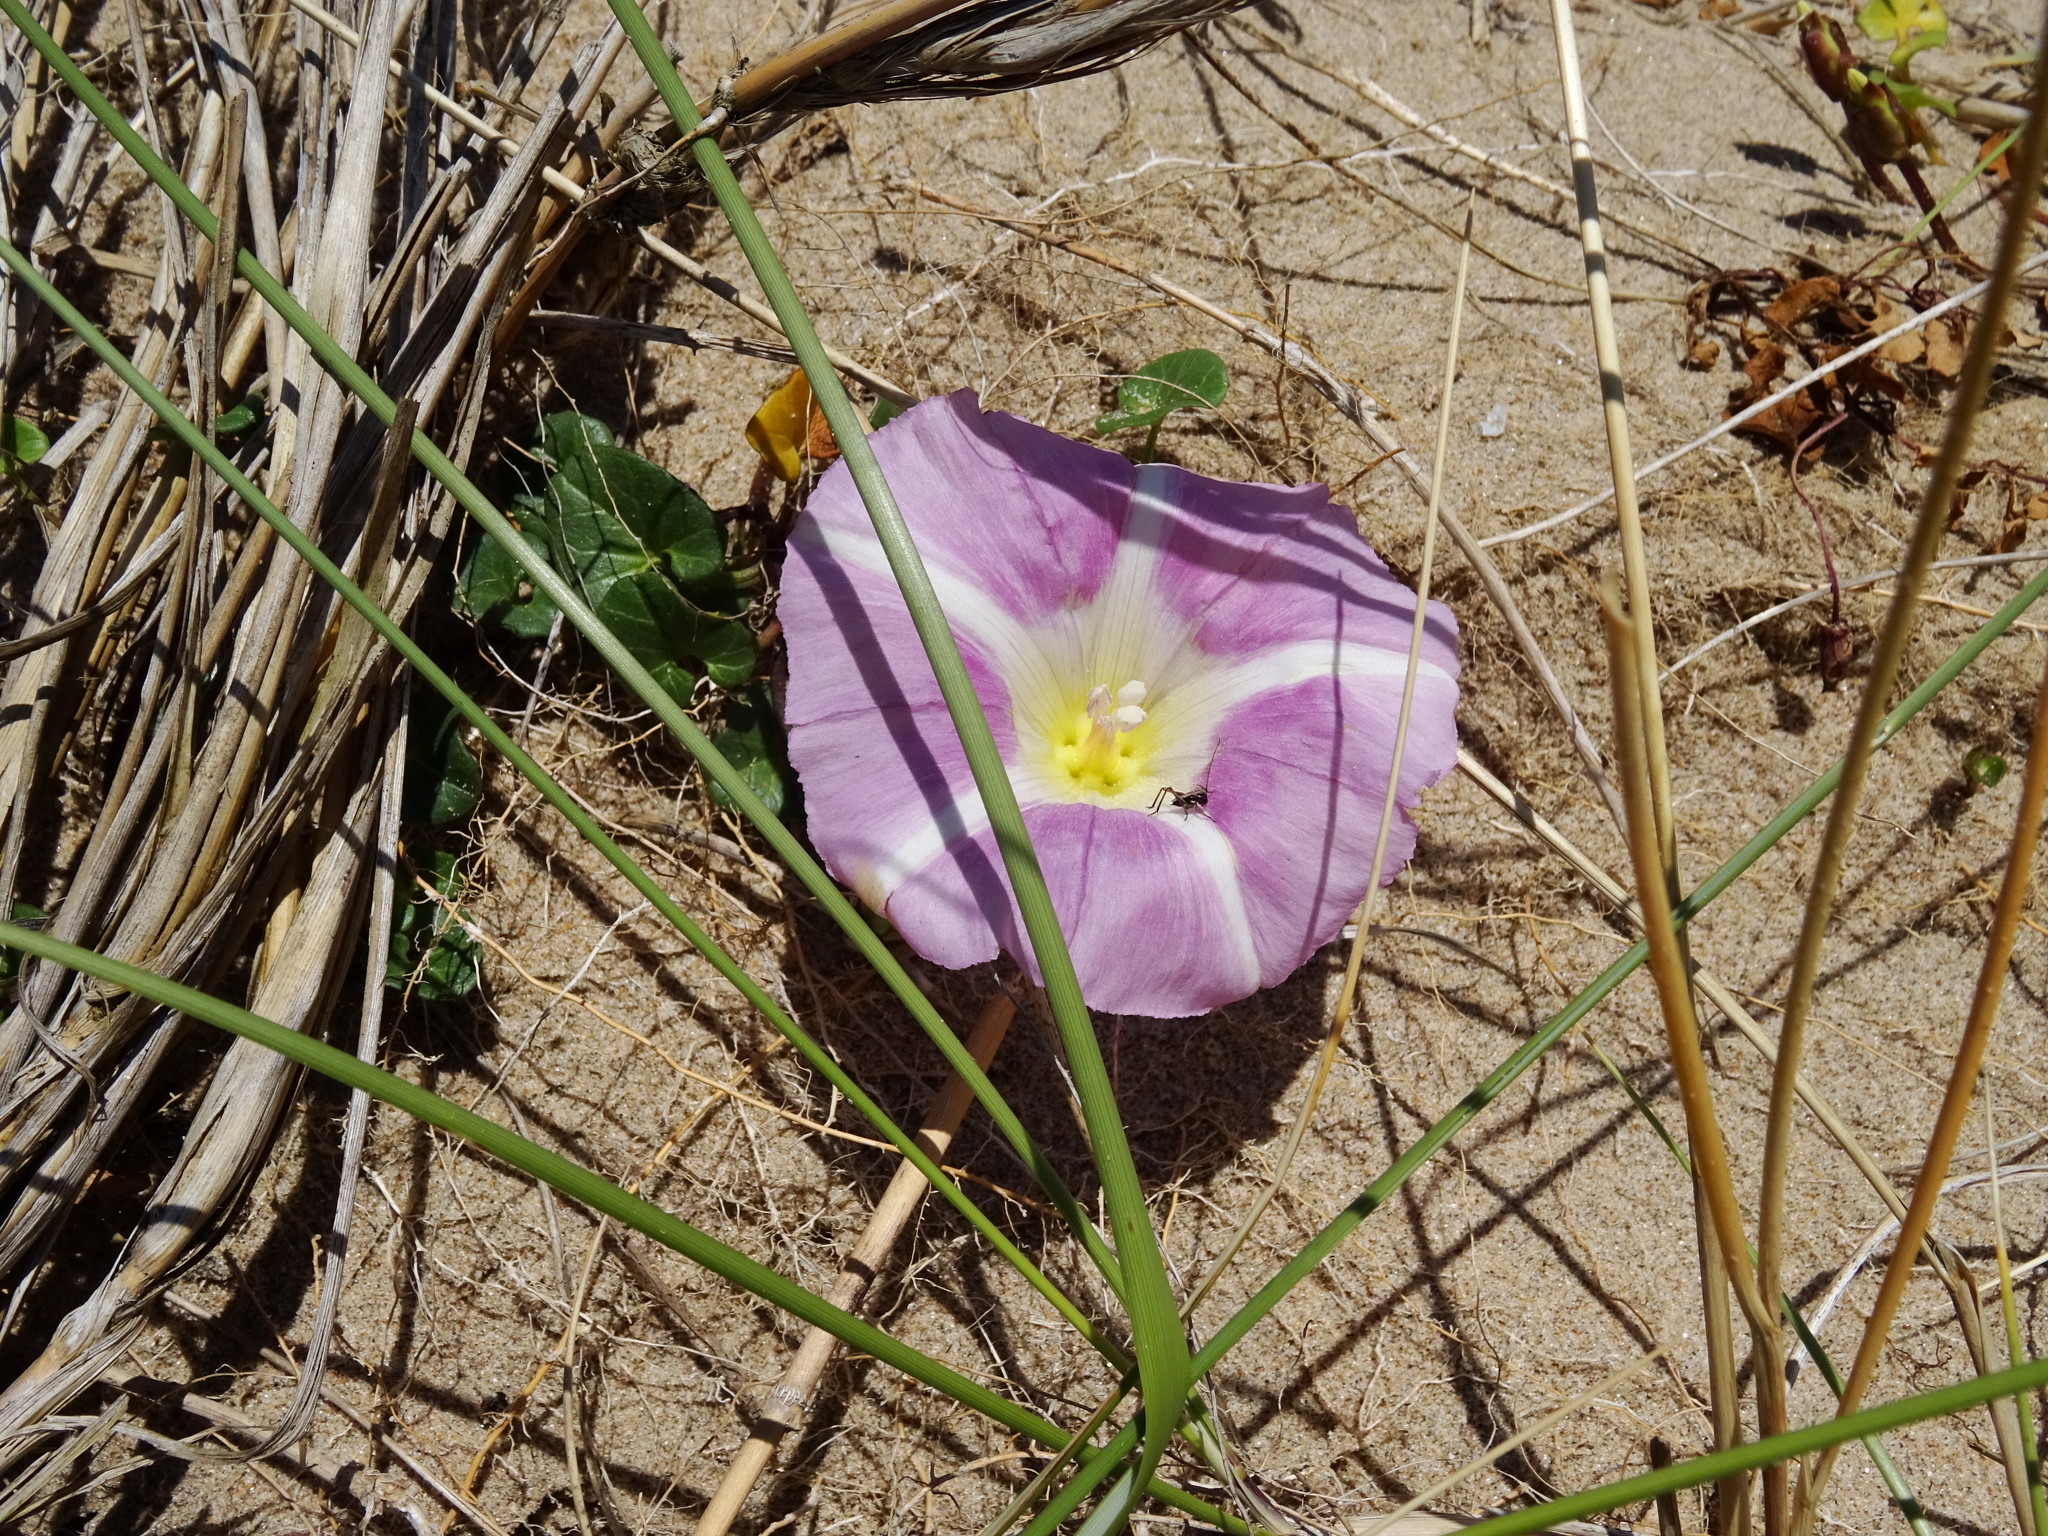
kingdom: Plantae
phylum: Tracheophyta
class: Magnoliopsida
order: Solanales
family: Convolvulaceae
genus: Calystegia
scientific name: Calystegia soldanella
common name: Sea bindweed
